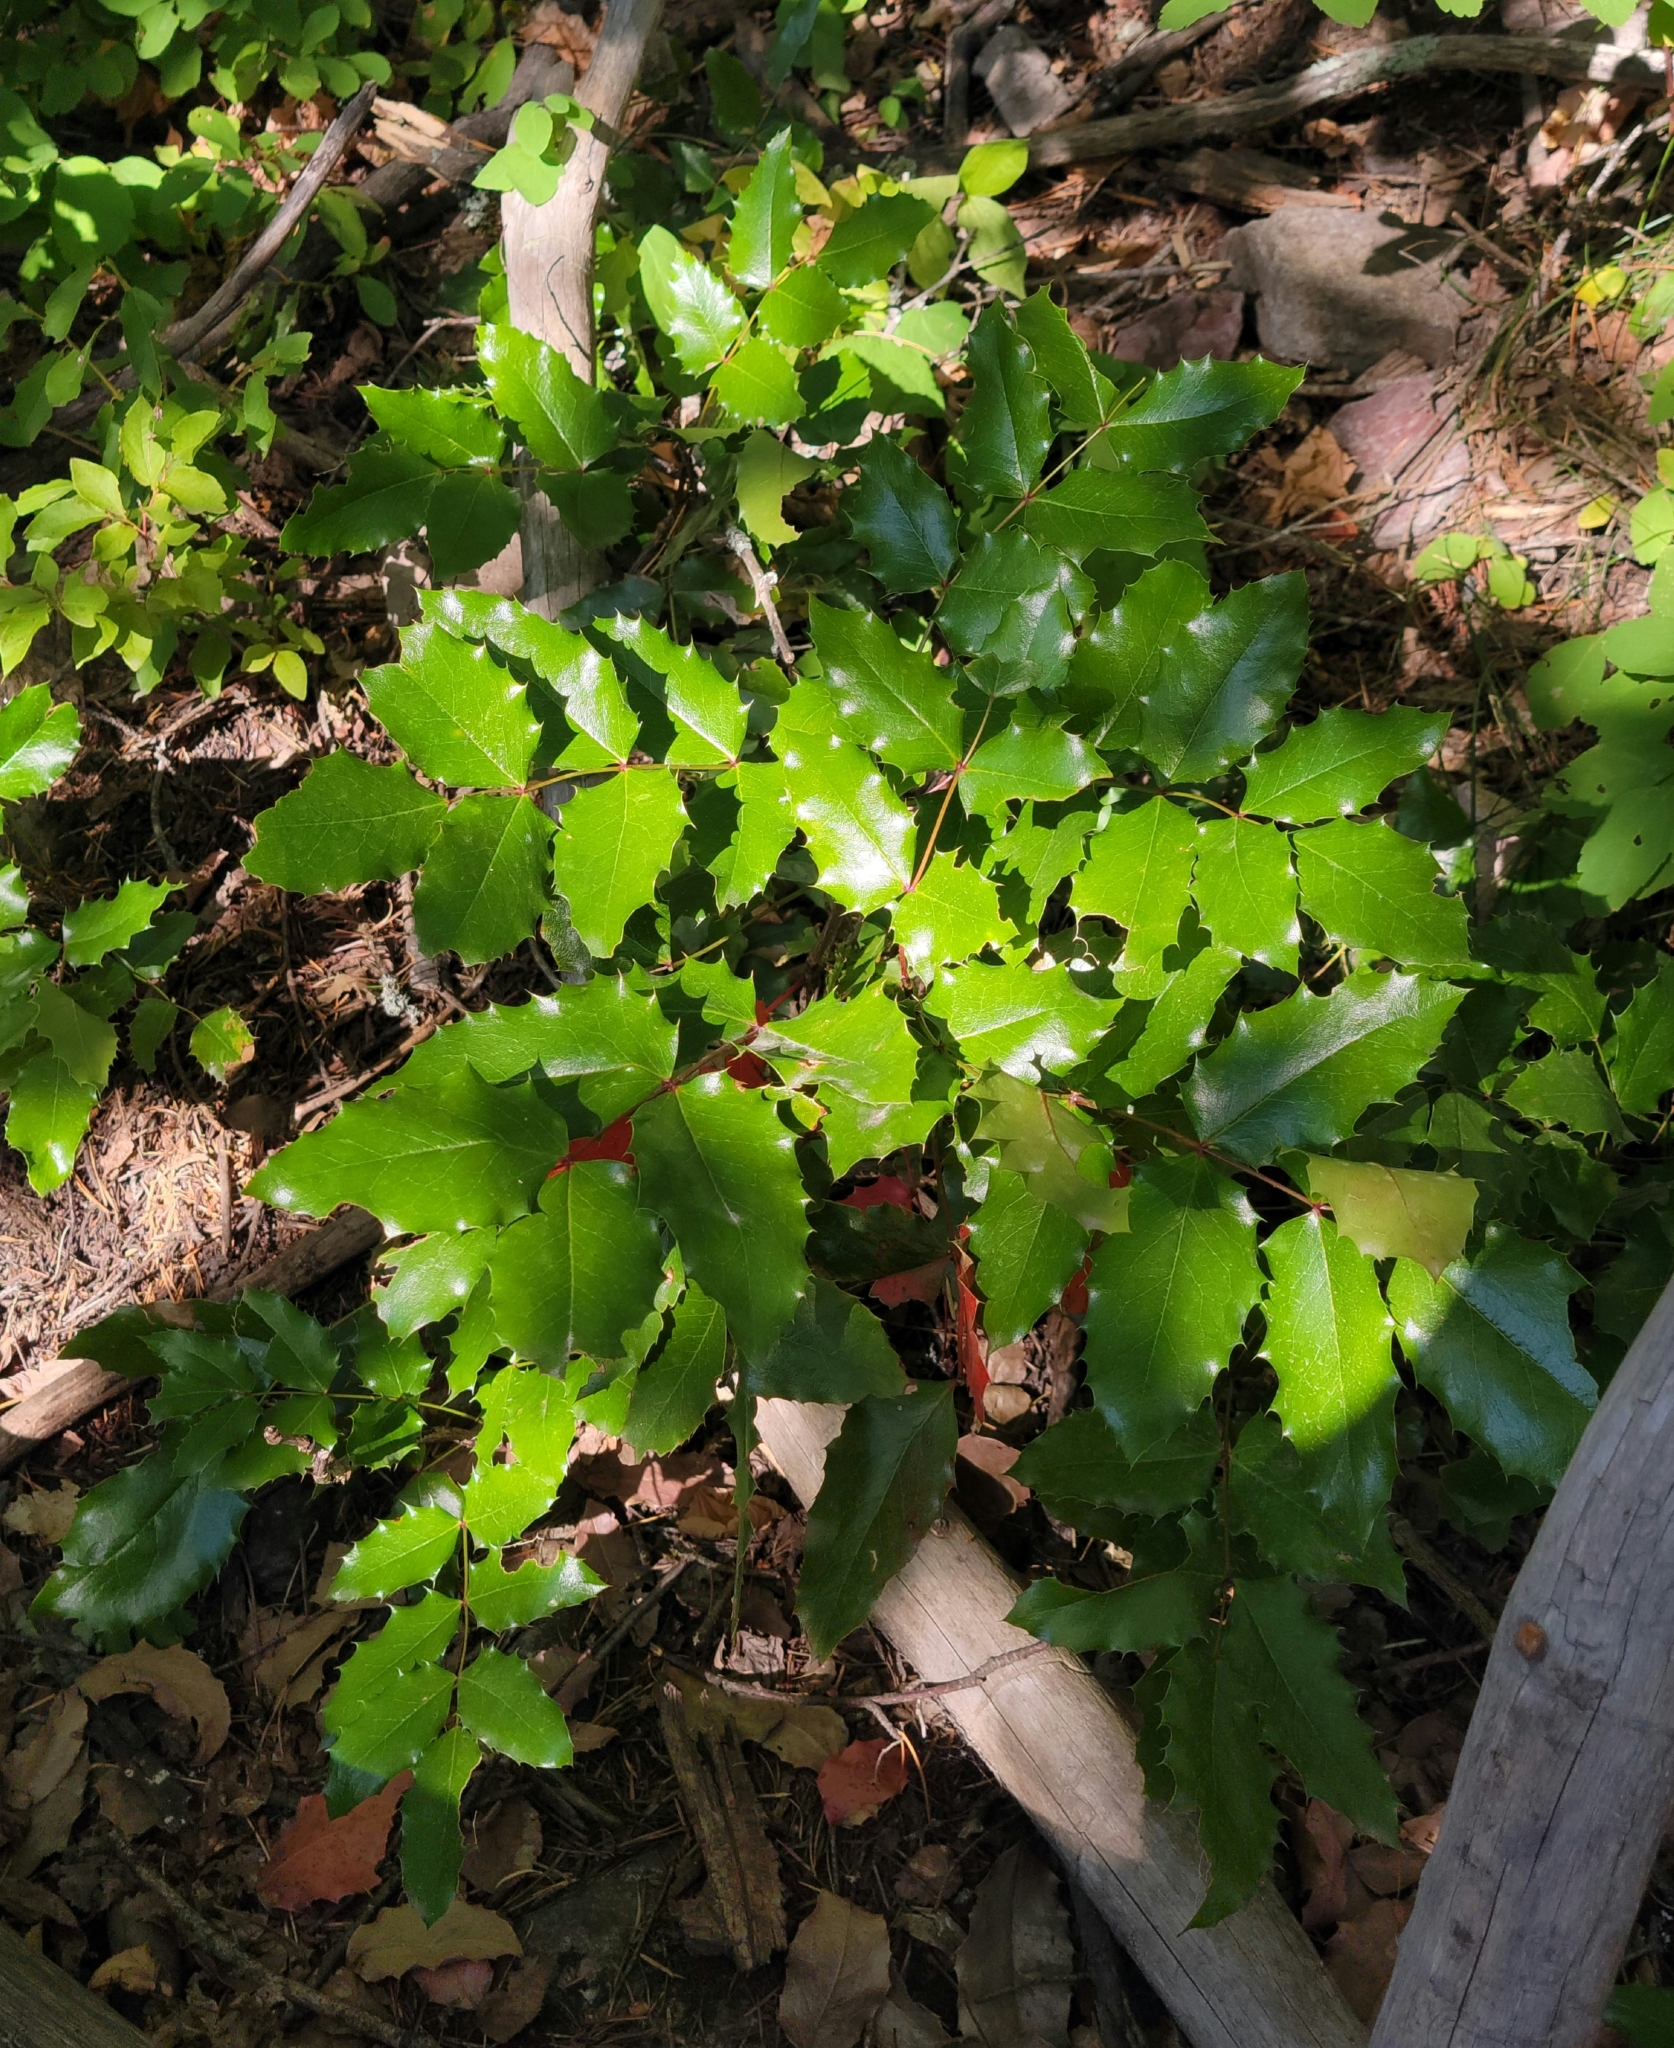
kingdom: Plantae
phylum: Tracheophyta
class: Magnoliopsida
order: Ranunculales
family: Berberidaceae
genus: Mahonia
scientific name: Mahonia aquifolium
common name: Oregon-grape
